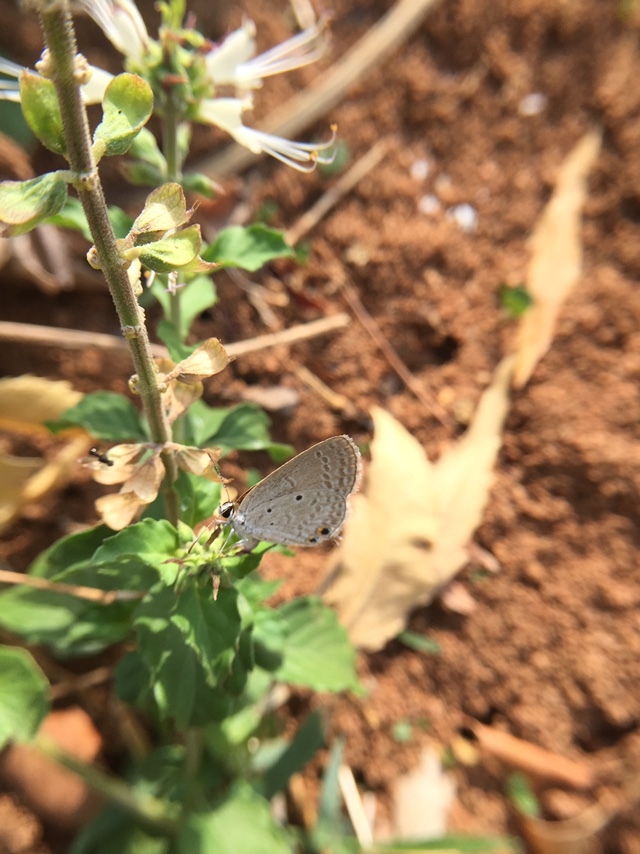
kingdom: Animalia
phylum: Arthropoda
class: Insecta
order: Lepidoptera
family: Lycaenidae
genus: Euchrysops
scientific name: Euchrysops cnejus
